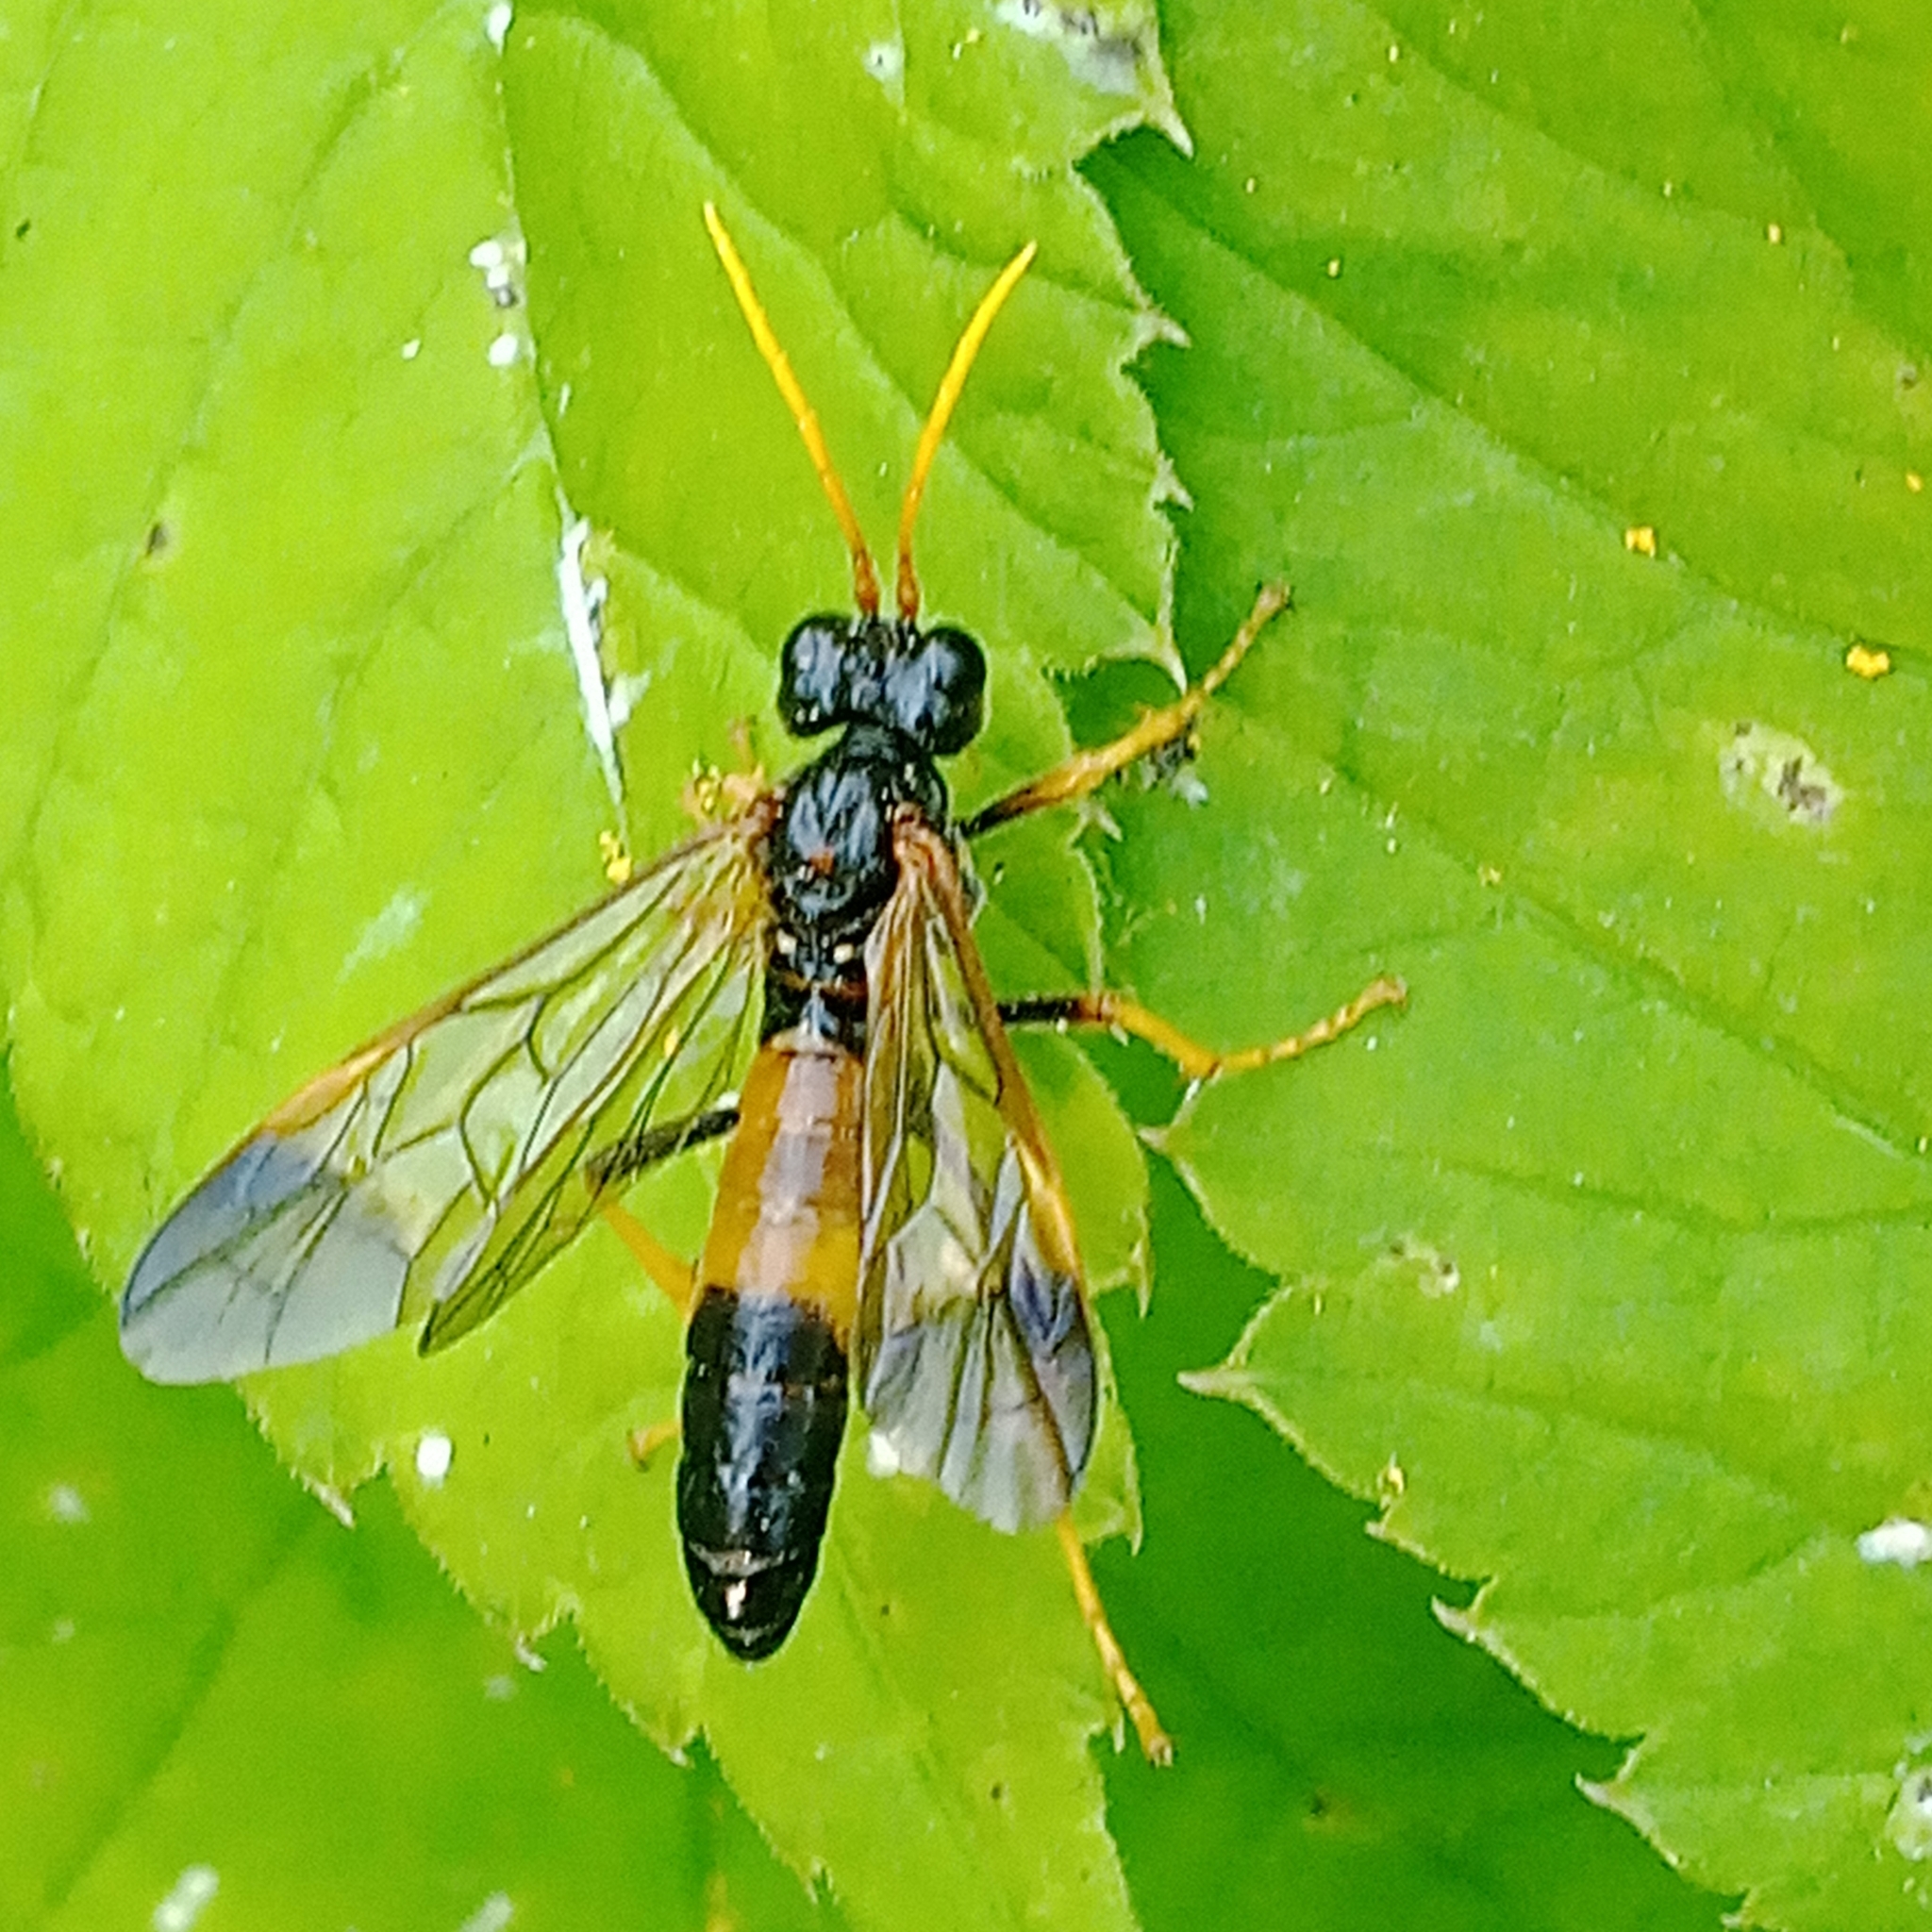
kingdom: Animalia
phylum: Arthropoda
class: Insecta
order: Hymenoptera
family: Tenthredinidae
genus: Tenthredo
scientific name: Tenthredo campestris
